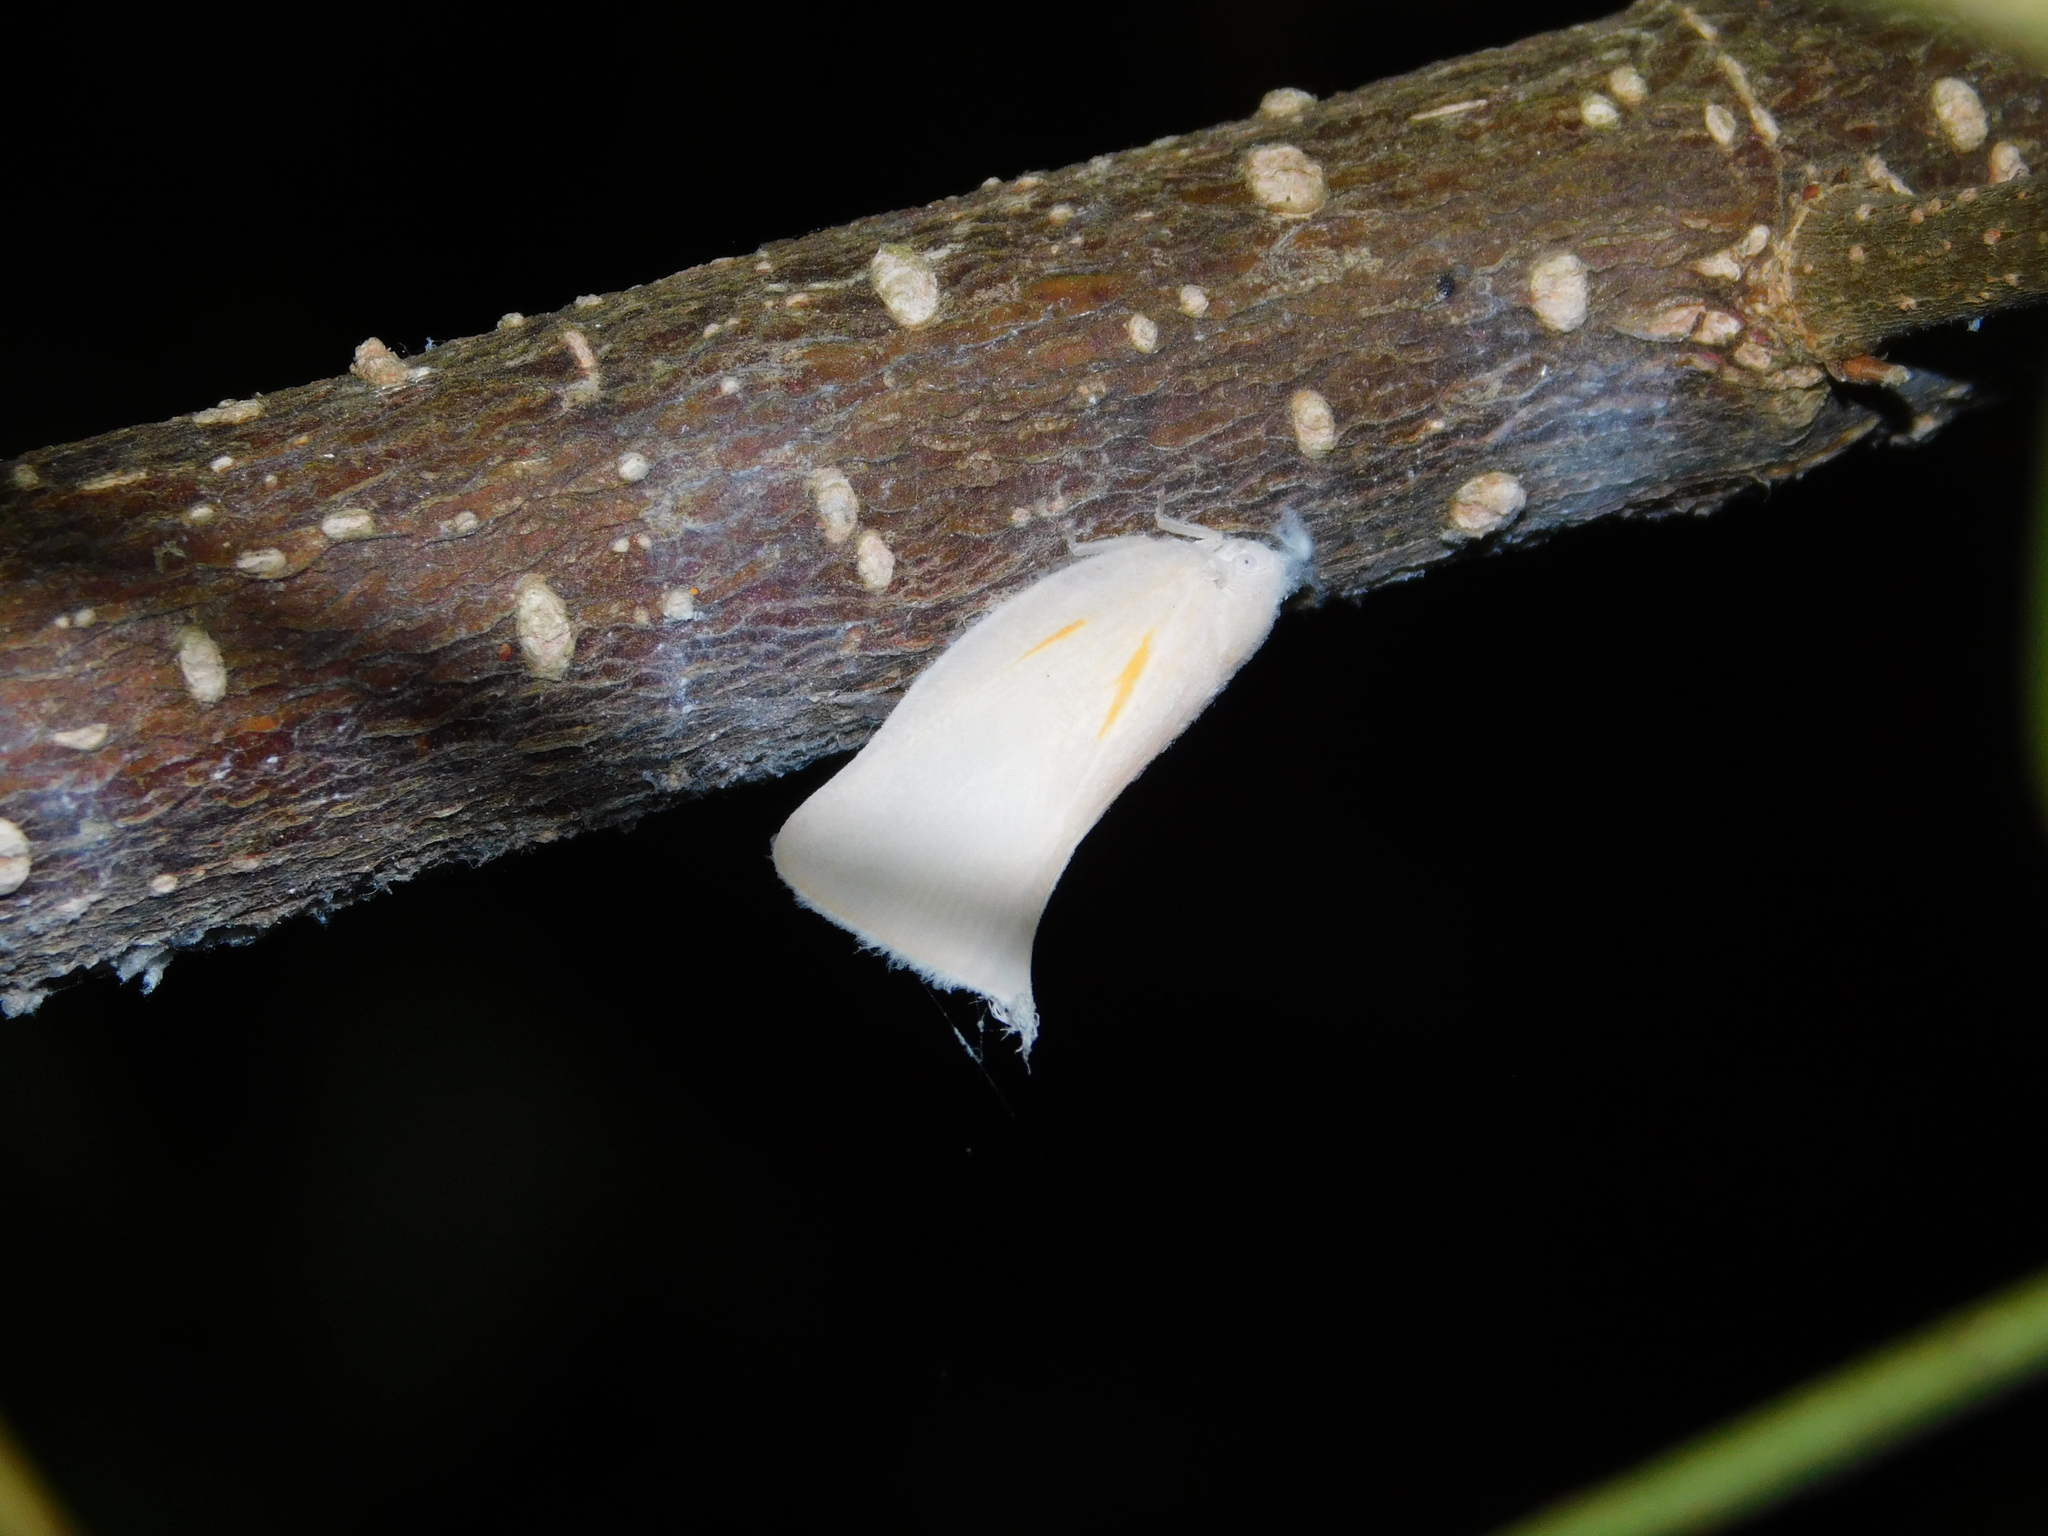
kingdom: Animalia
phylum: Arthropoda
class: Insecta
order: Hemiptera
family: Flatidae
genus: Lawana
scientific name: Lawana candida
